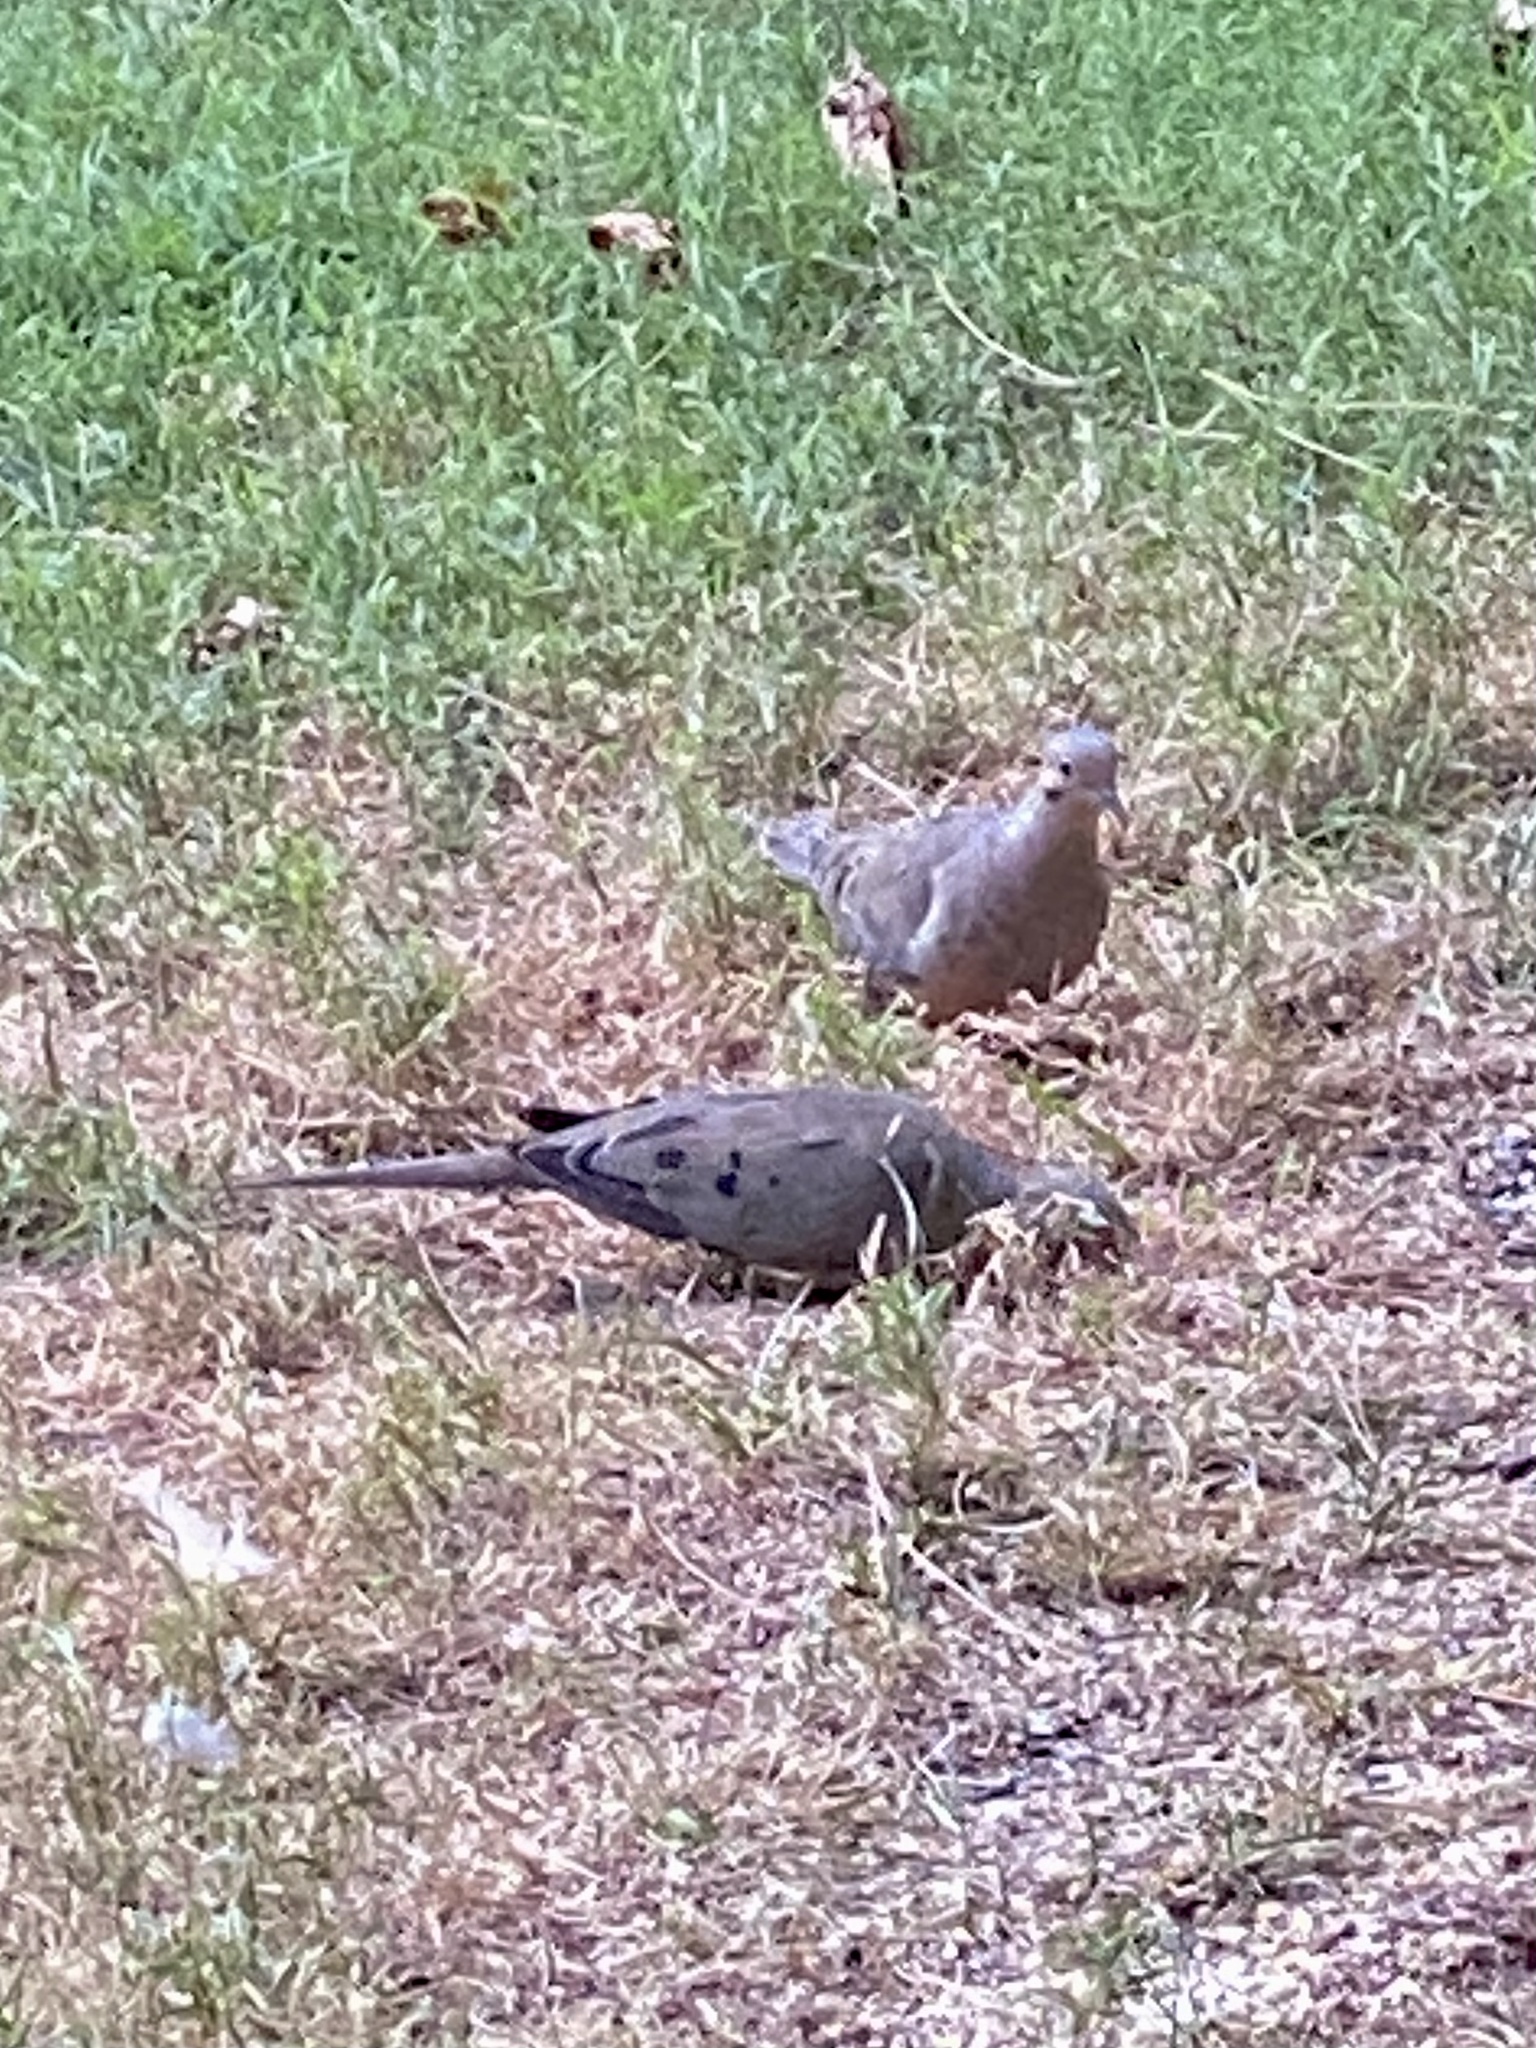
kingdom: Animalia
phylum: Chordata
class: Aves
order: Columbiformes
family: Columbidae
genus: Zenaida
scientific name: Zenaida macroura
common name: Mourning dove
